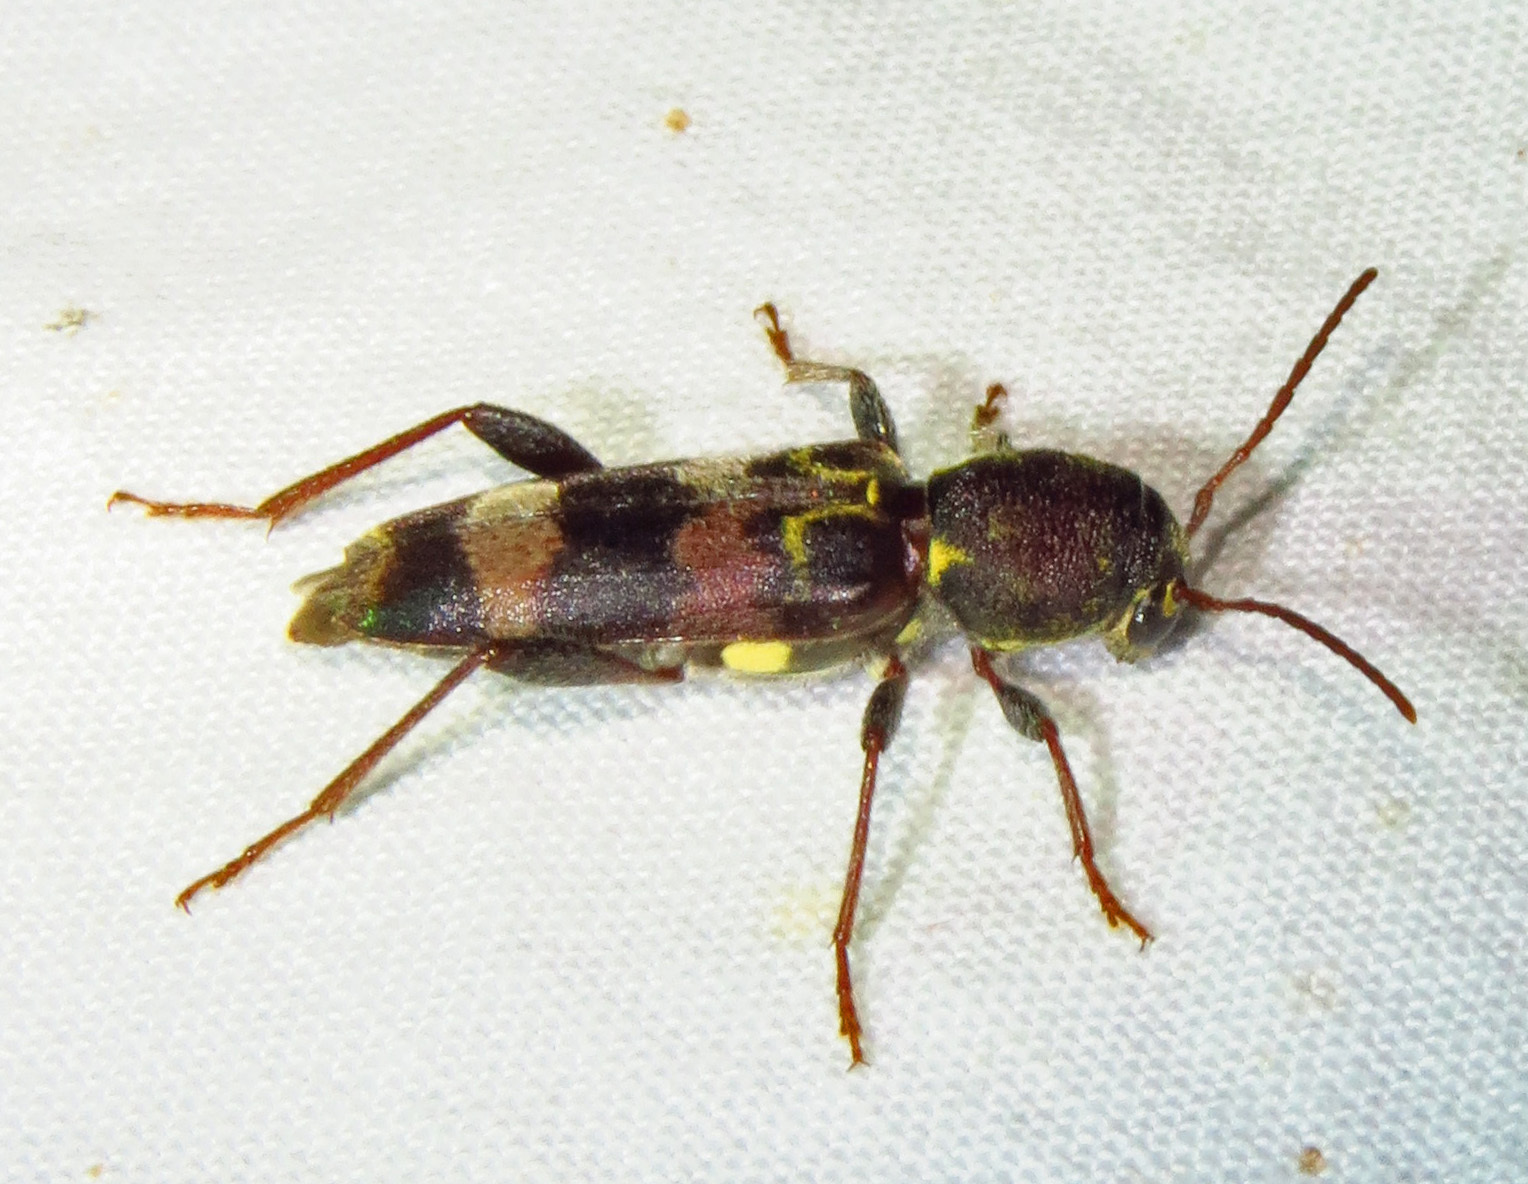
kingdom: Animalia
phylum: Arthropoda
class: Insecta
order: Coleoptera
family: Cerambycidae
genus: Xylotrechus
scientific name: Xylotrechus colonus
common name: Long-horned beetle
